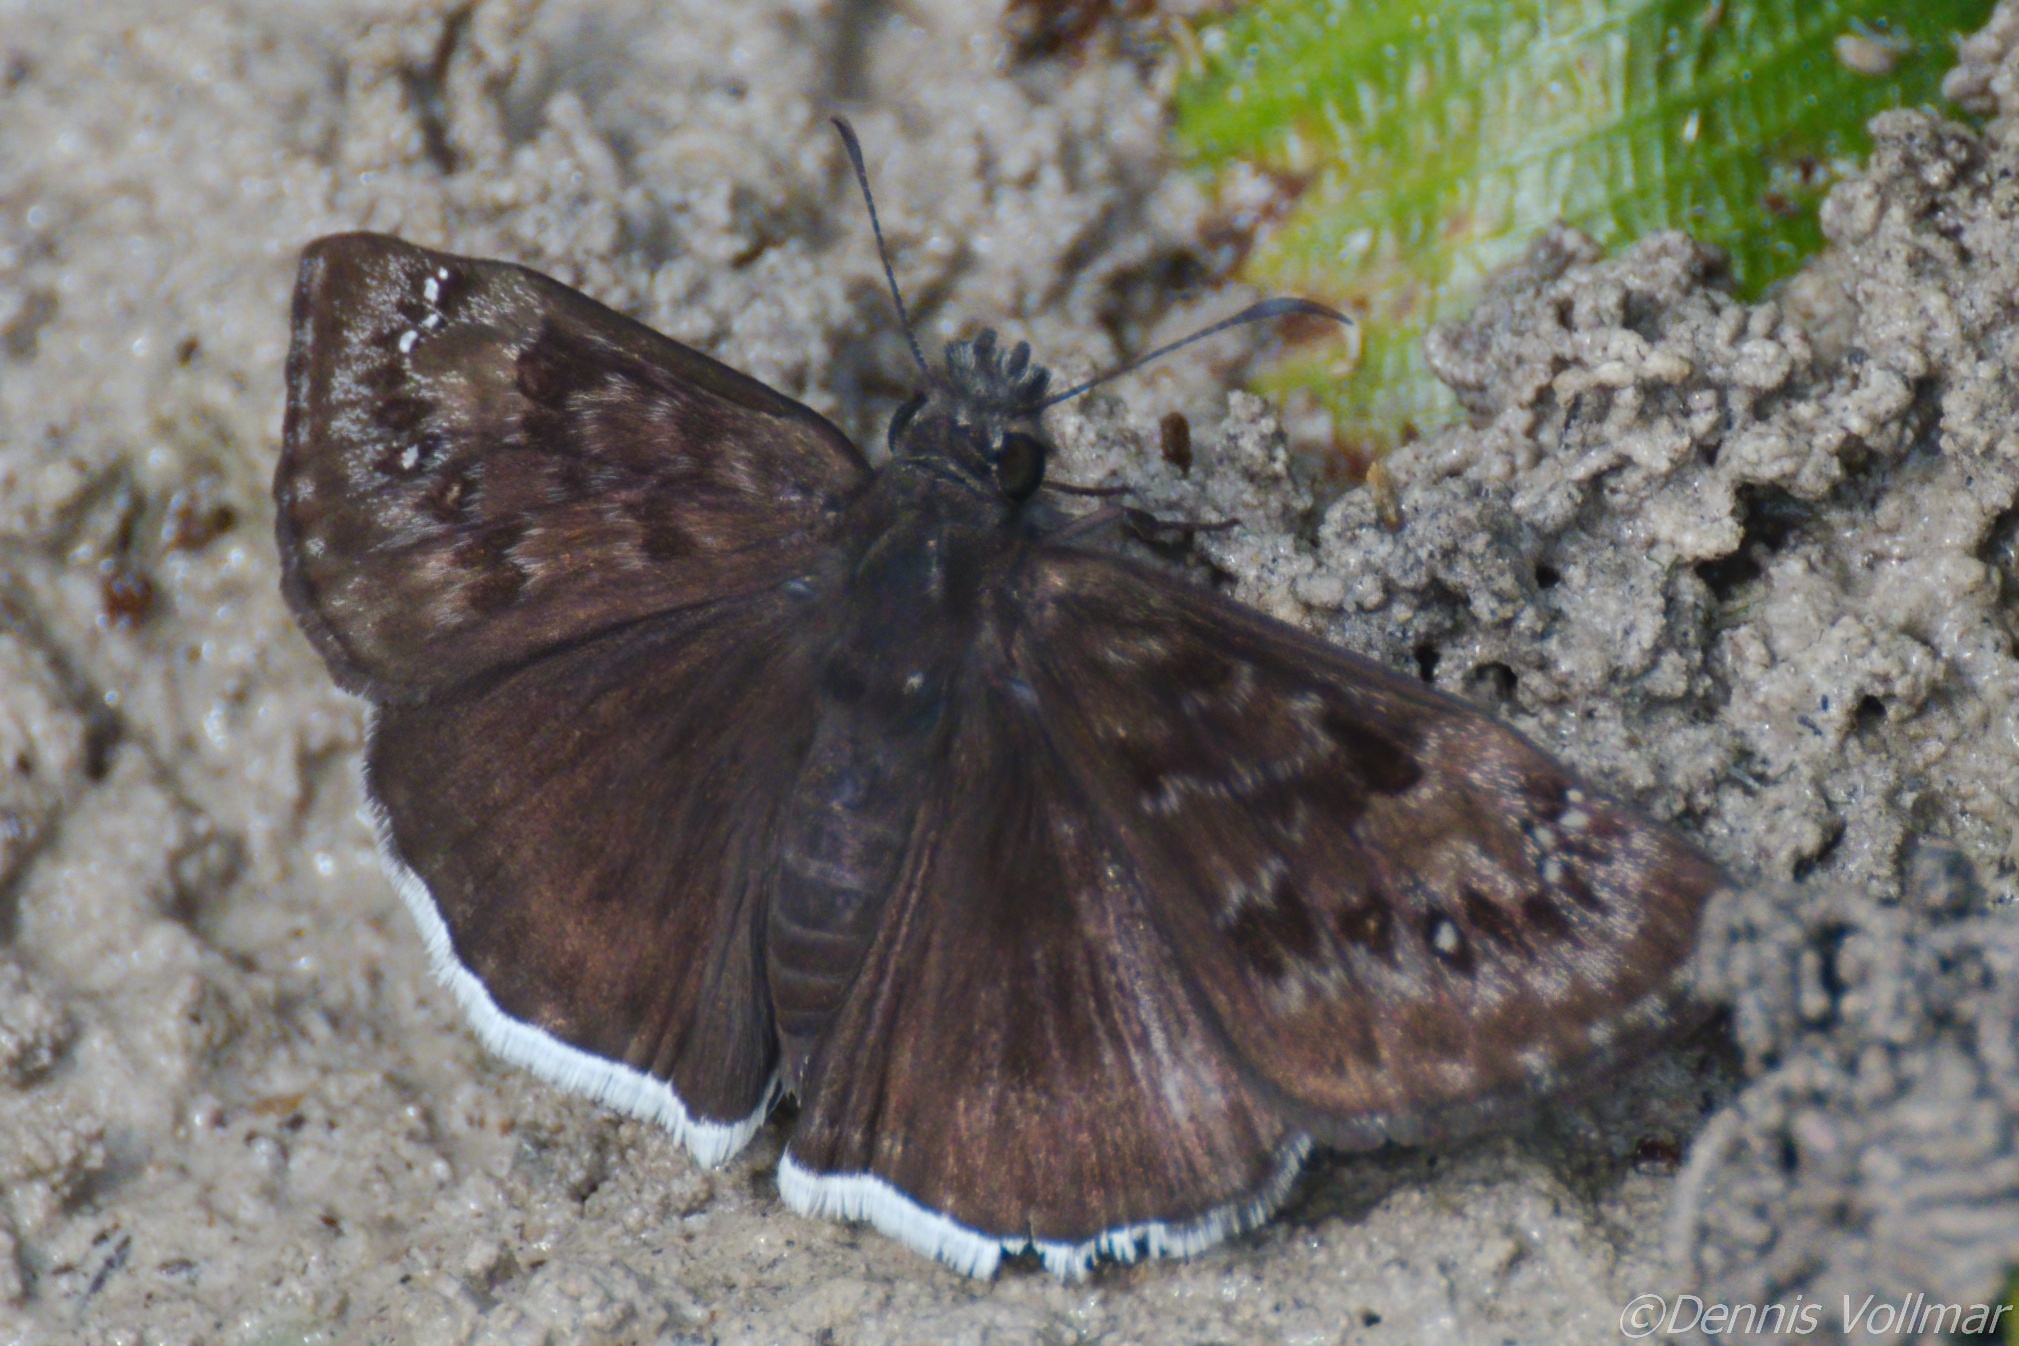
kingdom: Animalia
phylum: Arthropoda
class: Insecta
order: Lepidoptera
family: Hesperiidae
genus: Erynnis
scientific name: Erynnis tristis
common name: Mournful duskywing
